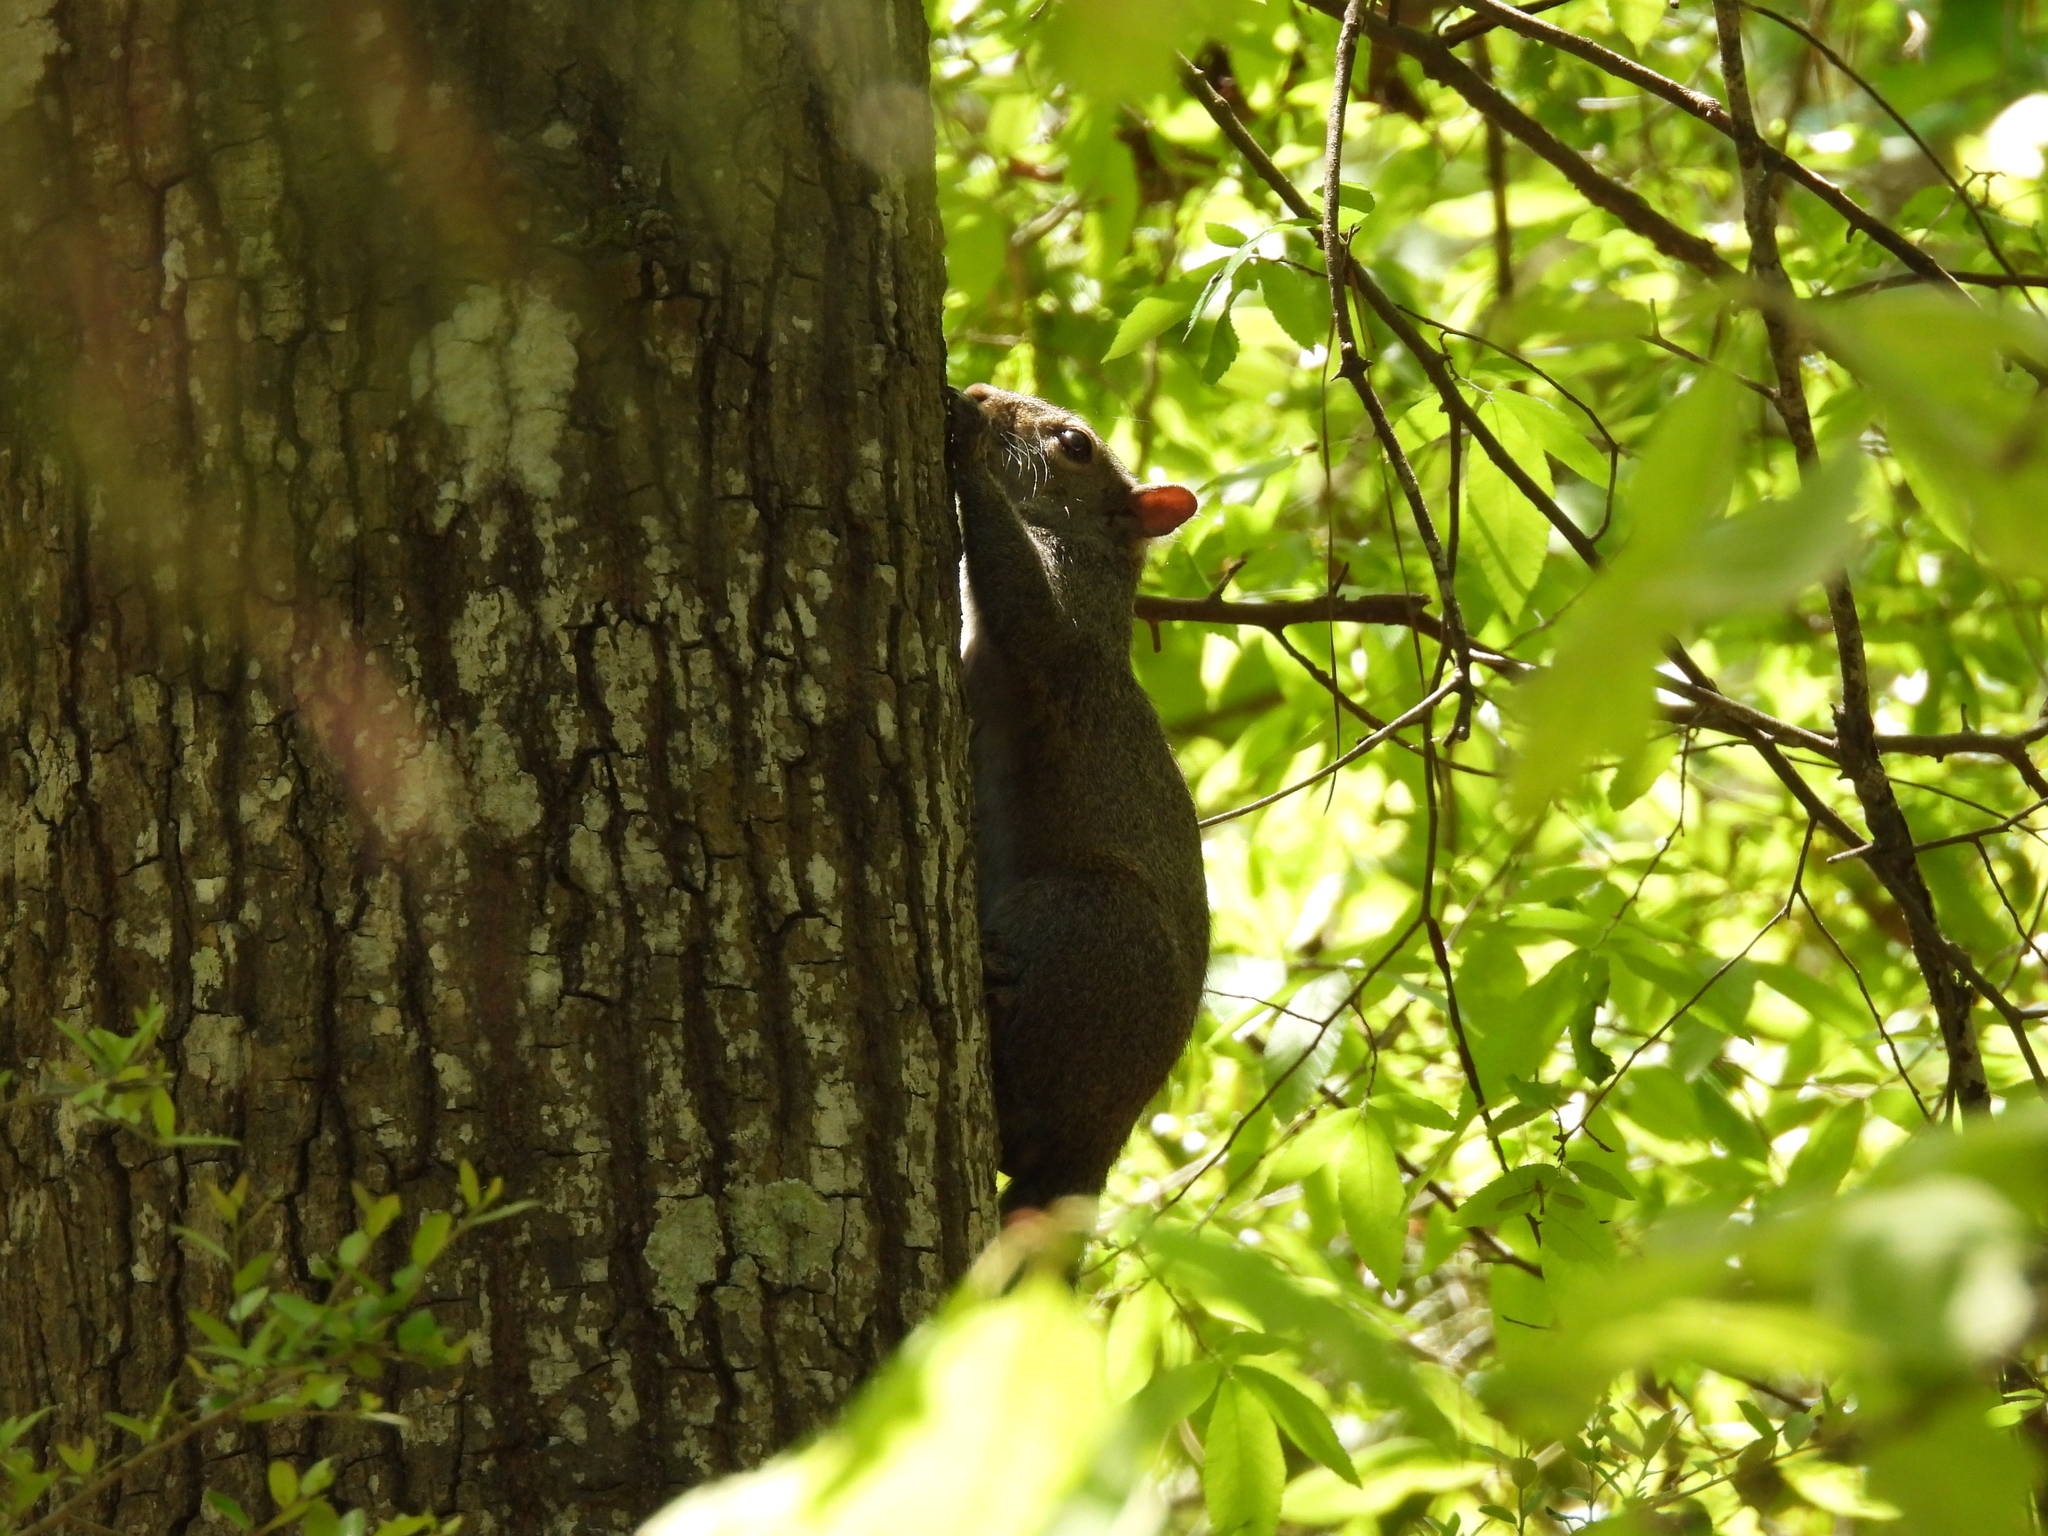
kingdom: Animalia
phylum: Chordata
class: Mammalia
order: Rodentia
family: Sciuridae
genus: Sciurus
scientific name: Sciurus carolinensis
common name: Eastern gray squirrel
